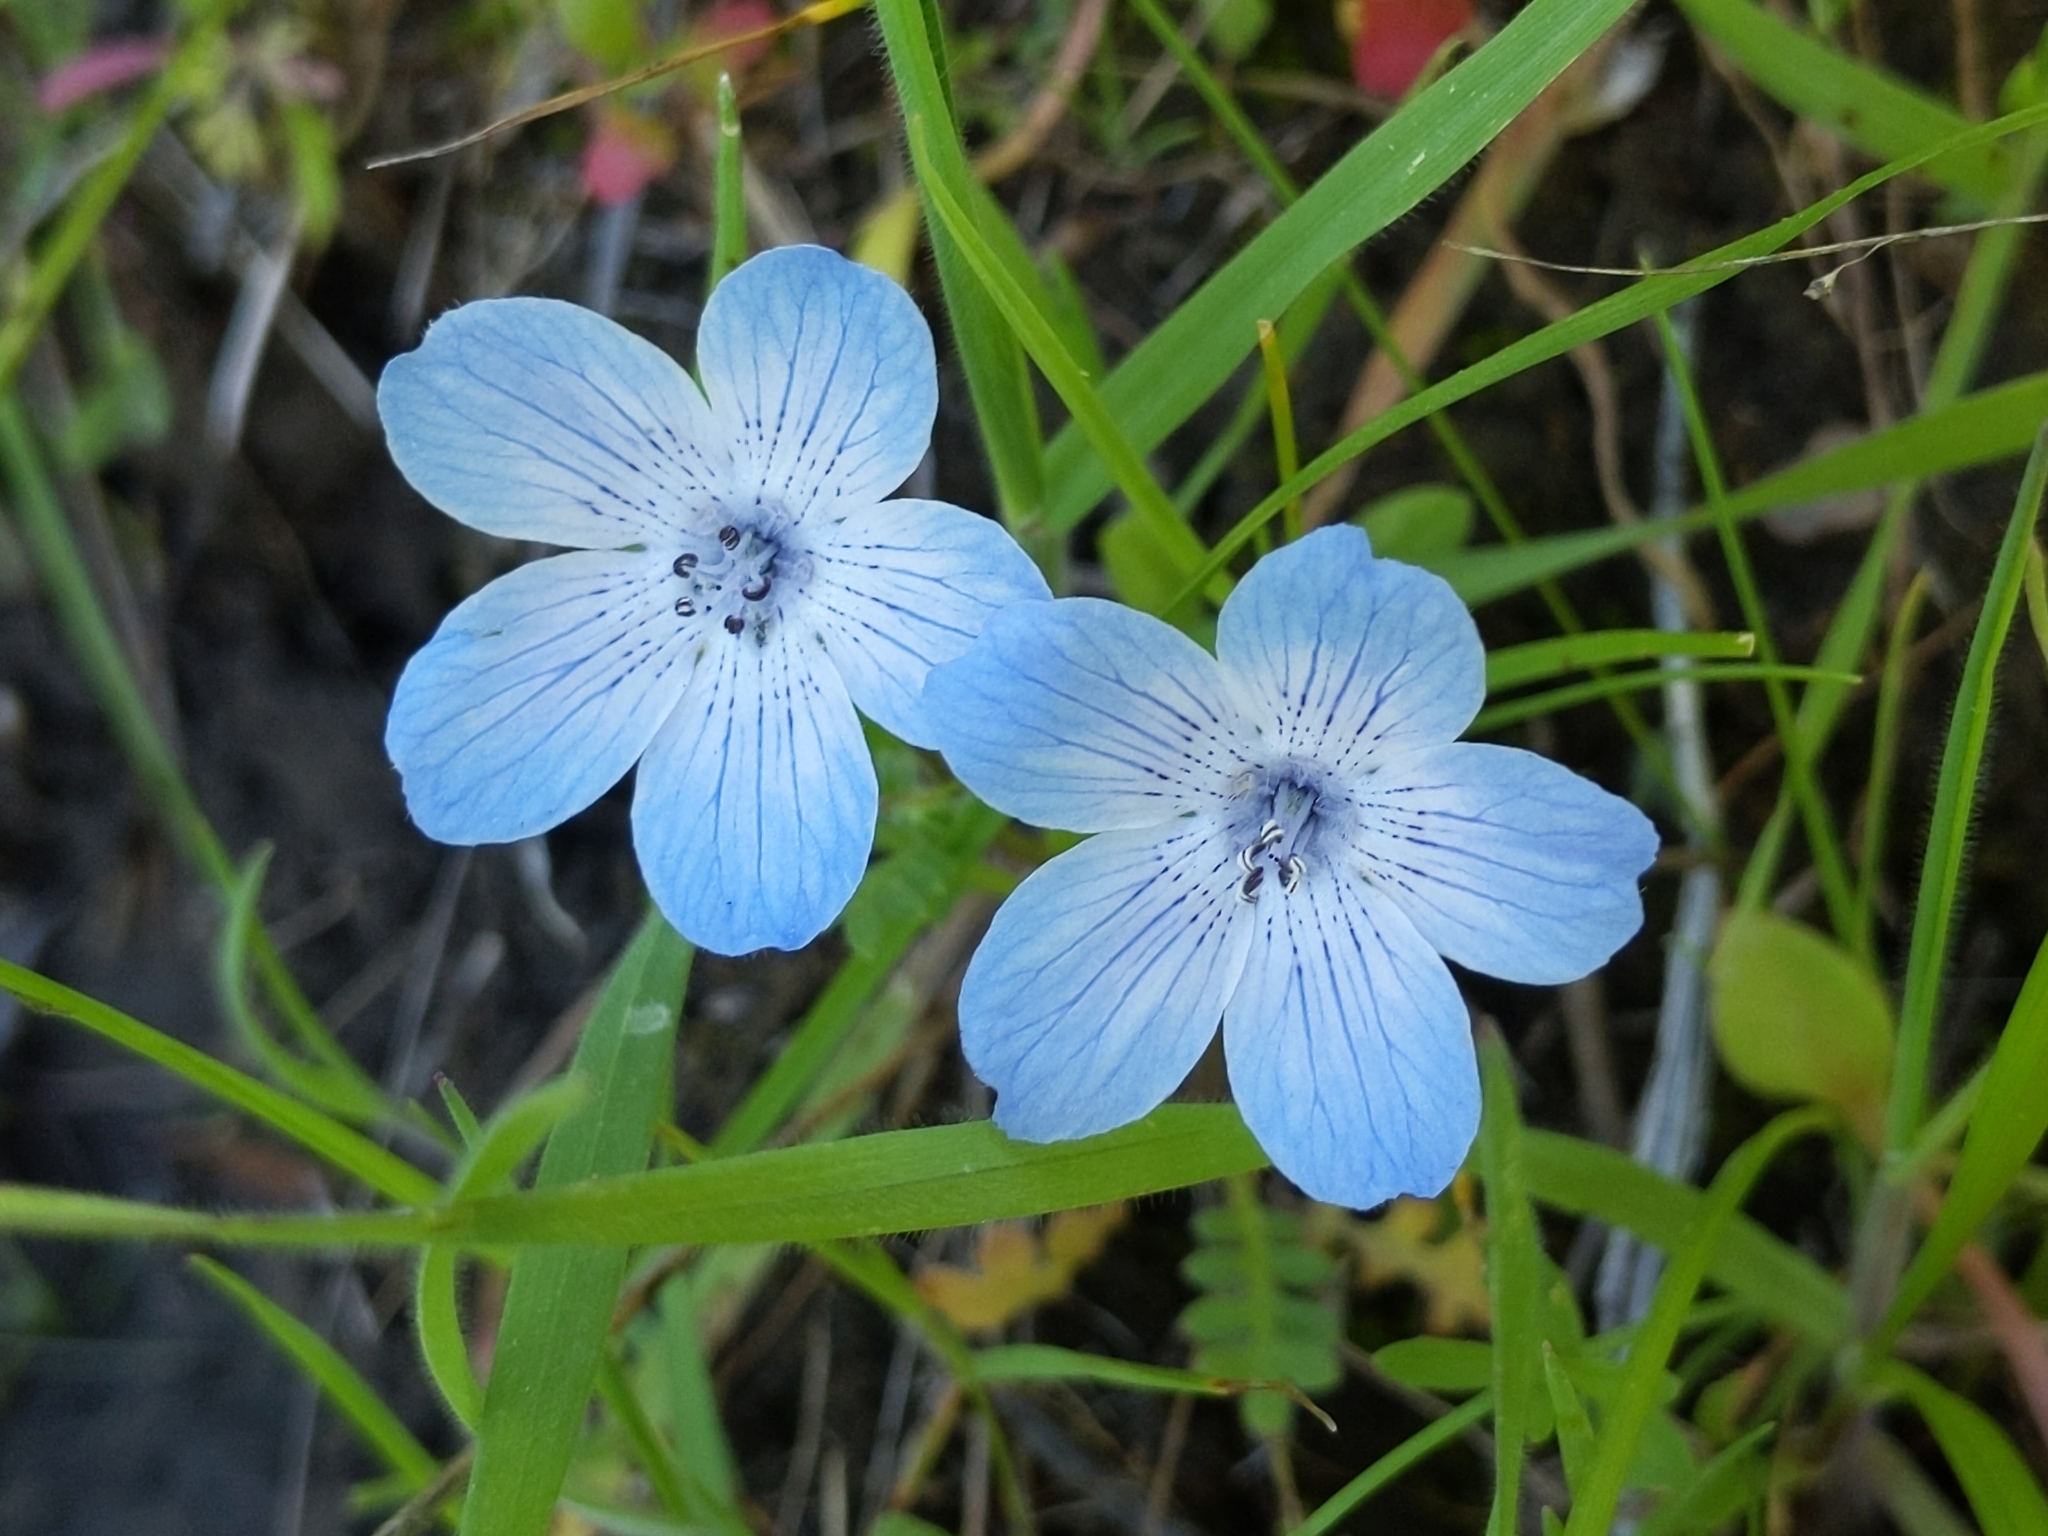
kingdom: Plantae
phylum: Tracheophyta
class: Magnoliopsida
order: Boraginales
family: Hydrophyllaceae
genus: Nemophila
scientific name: Nemophila menziesii
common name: Baby's-blue-eyes
